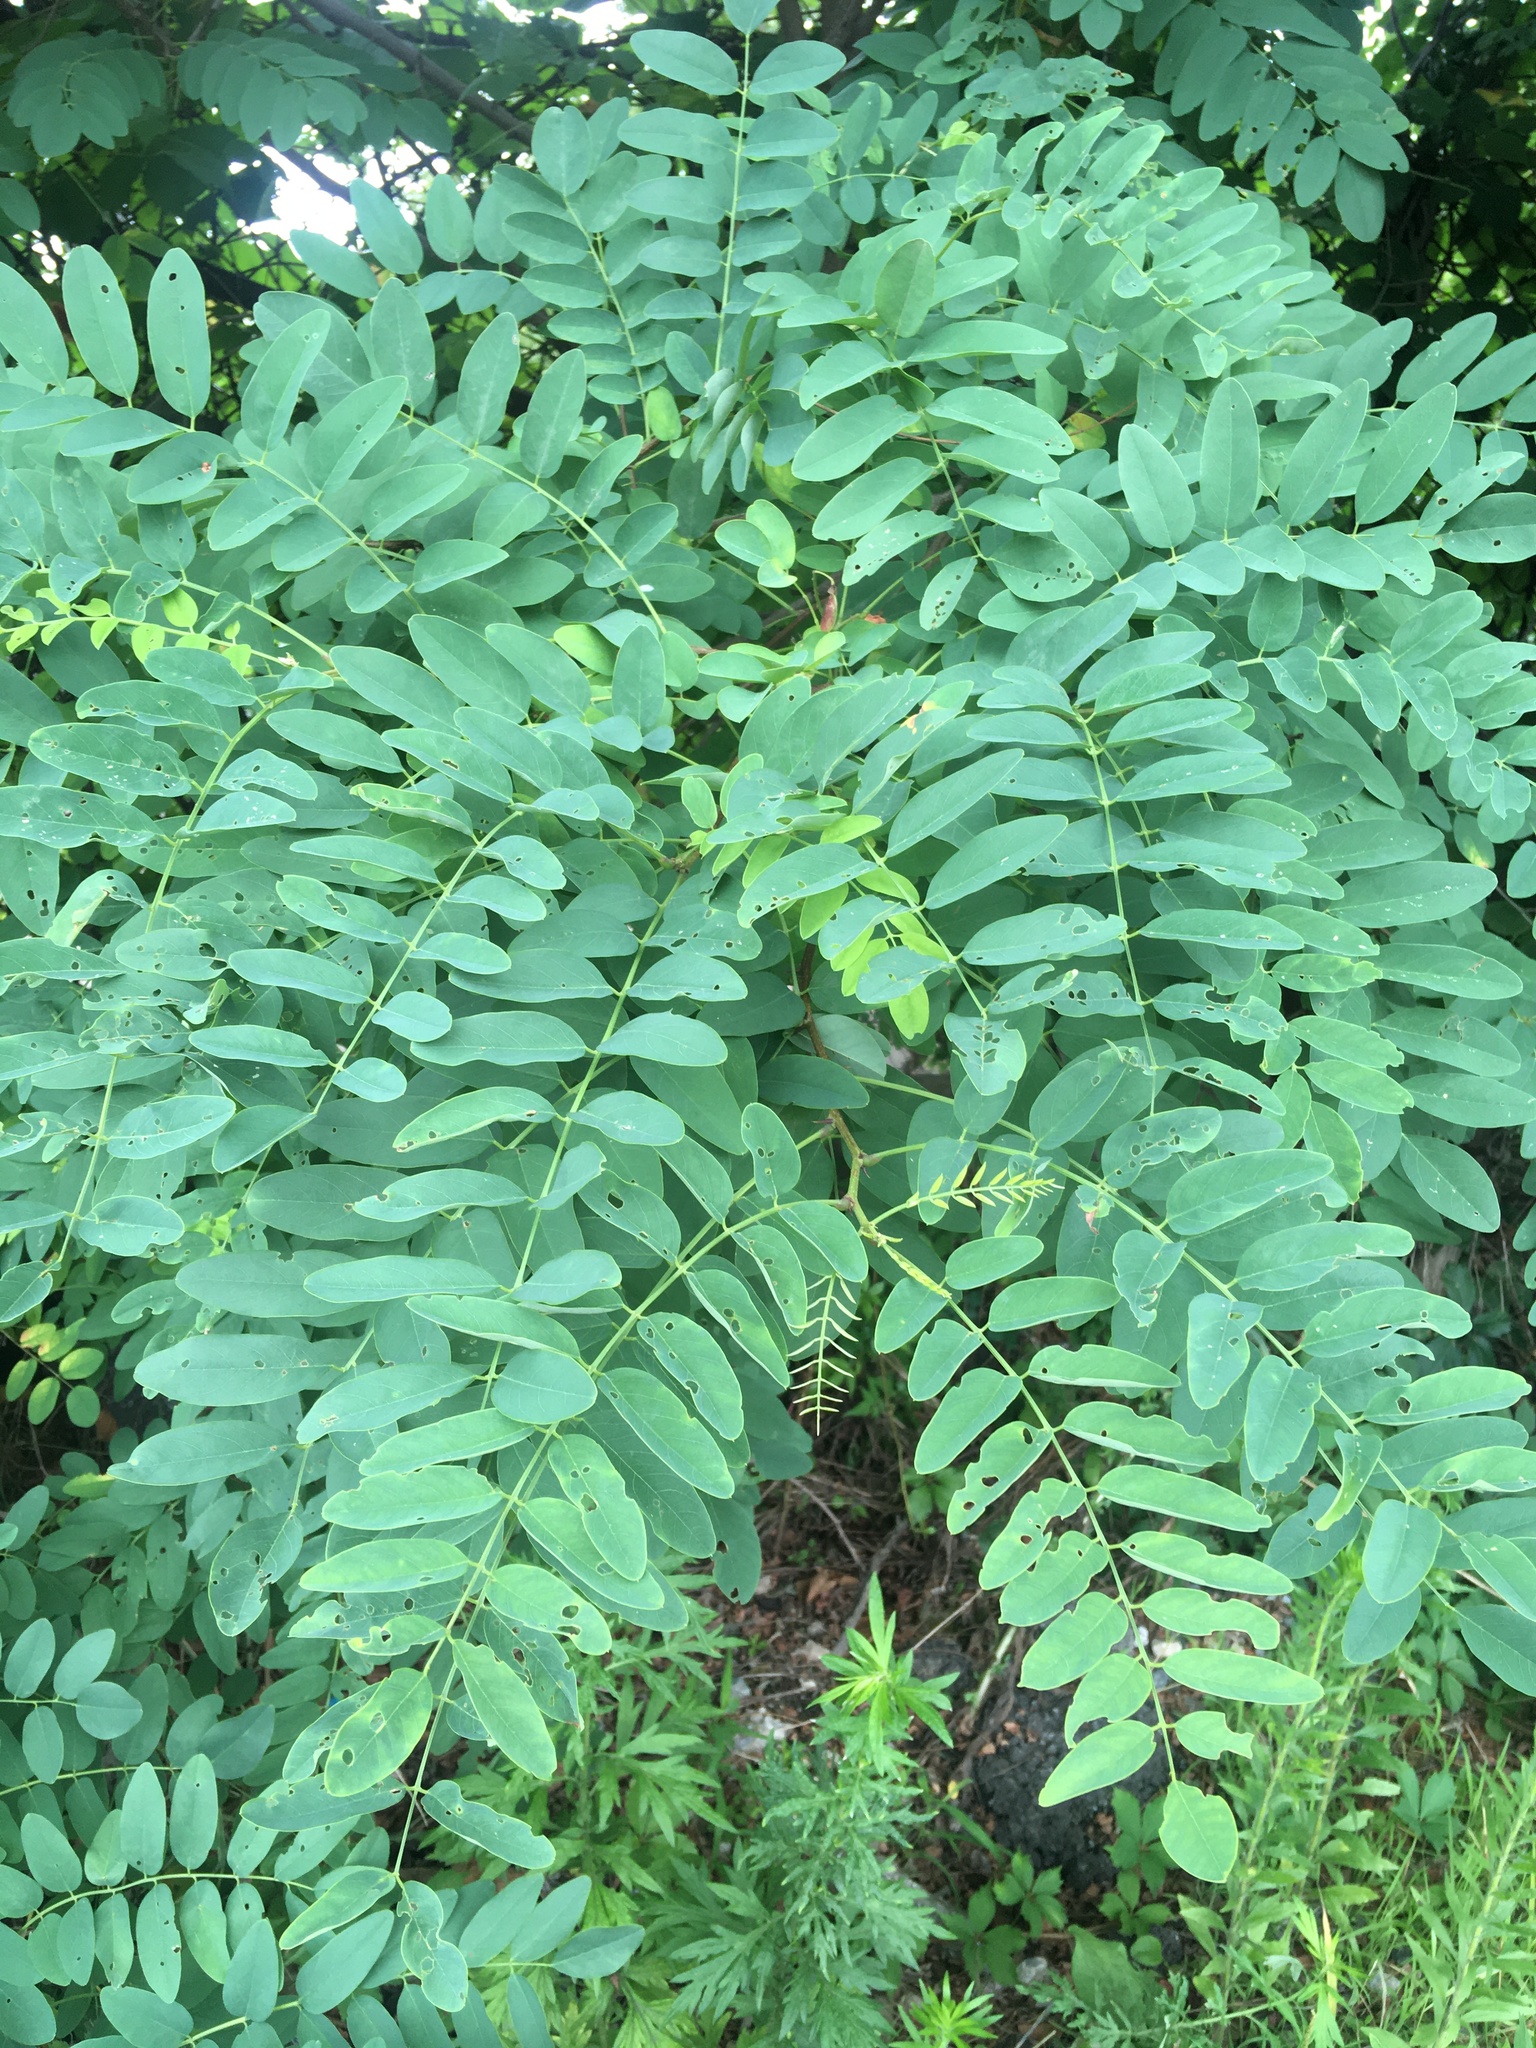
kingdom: Plantae
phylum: Tracheophyta
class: Magnoliopsida
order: Fabales
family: Fabaceae
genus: Robinia
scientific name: Robinia pseudoacacia
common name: Black locust
